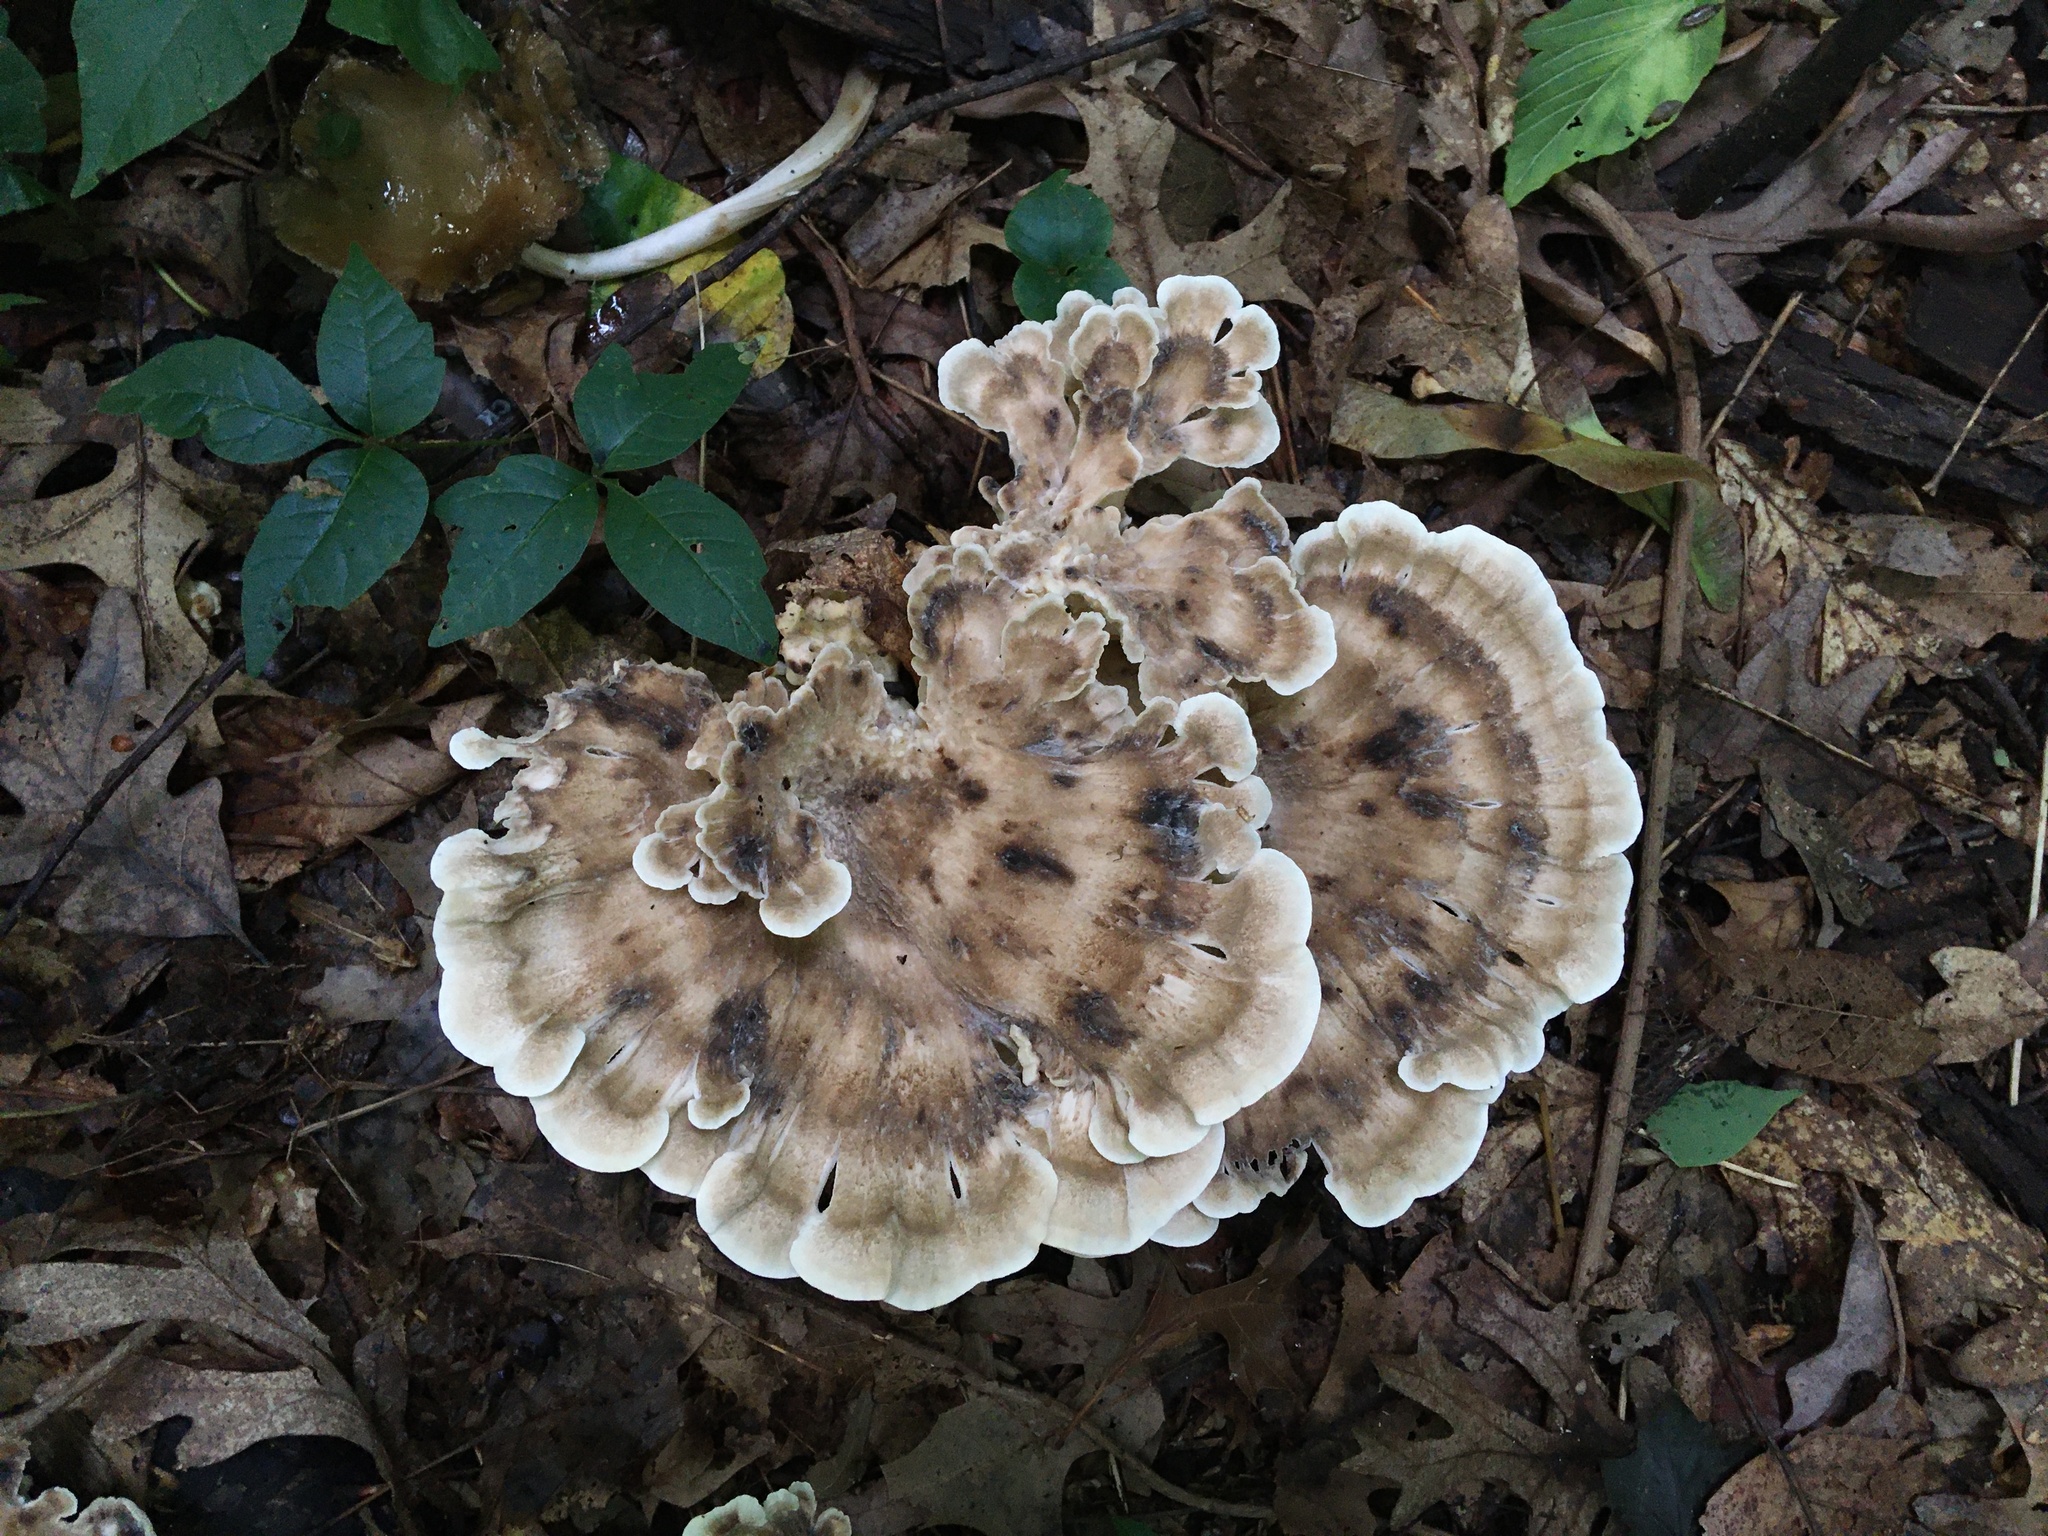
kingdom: Fungi
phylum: Basidiomycota
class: Agaricomycetes
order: Polyporales
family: Meripilaceae
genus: Meripilus
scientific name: Meripilus sumstinei
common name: Black-staining polypore
